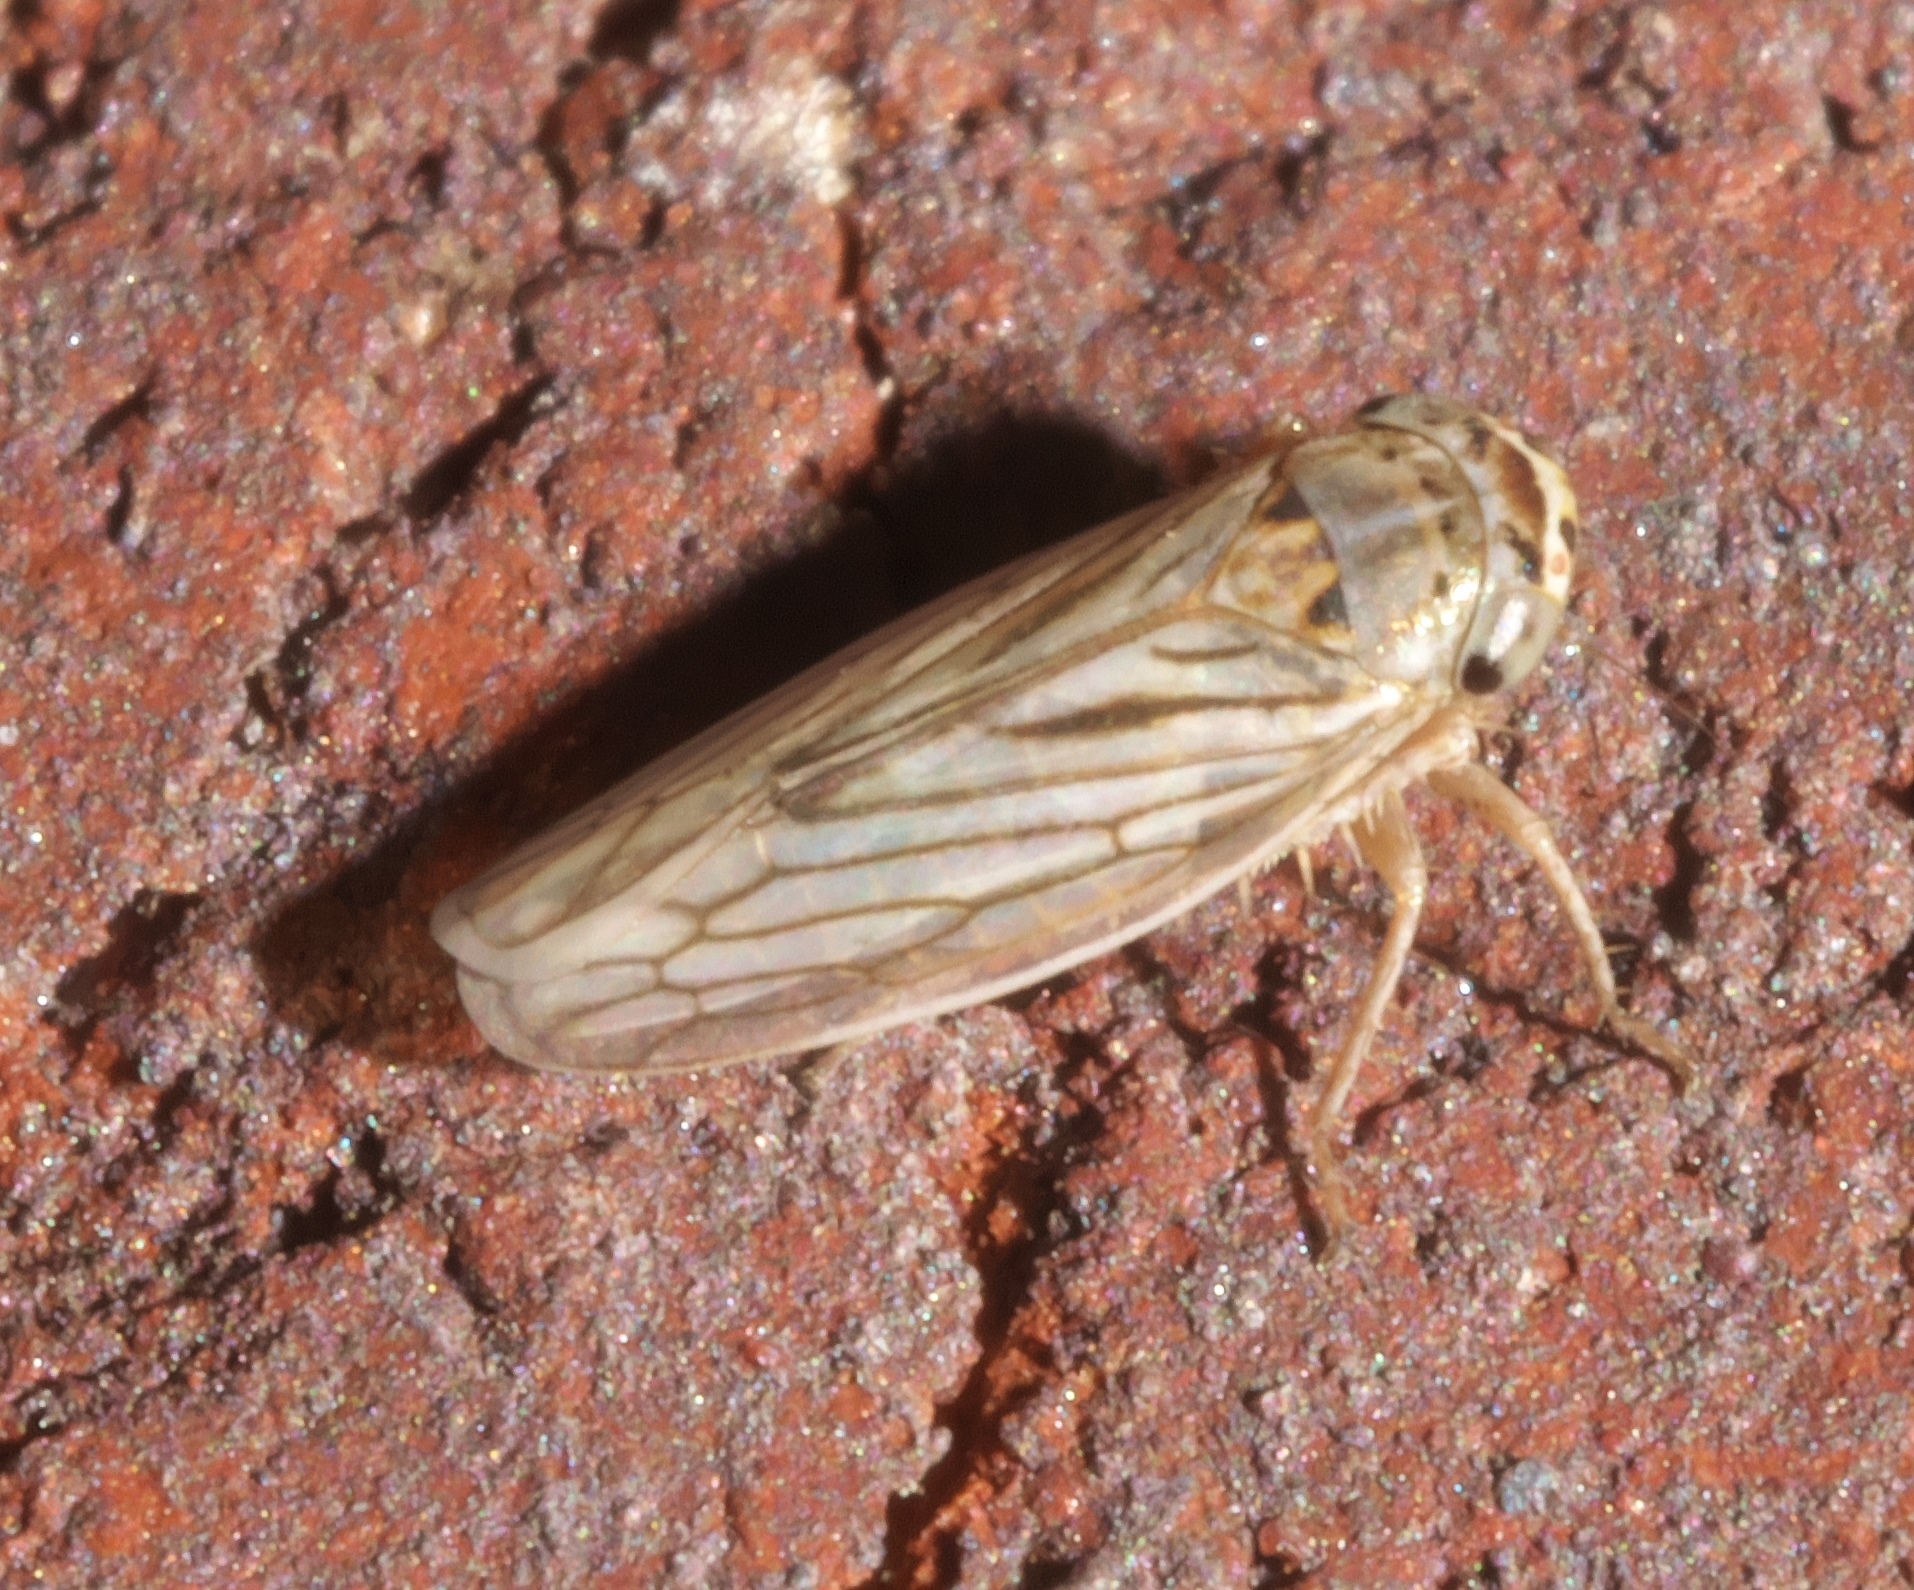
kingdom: Animalia
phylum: Arthropoda
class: Insecta
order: Hemiptera
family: Cicadellidae
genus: Exitianus
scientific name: Exitianus exitiosus
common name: Gray lawn leafhopper
